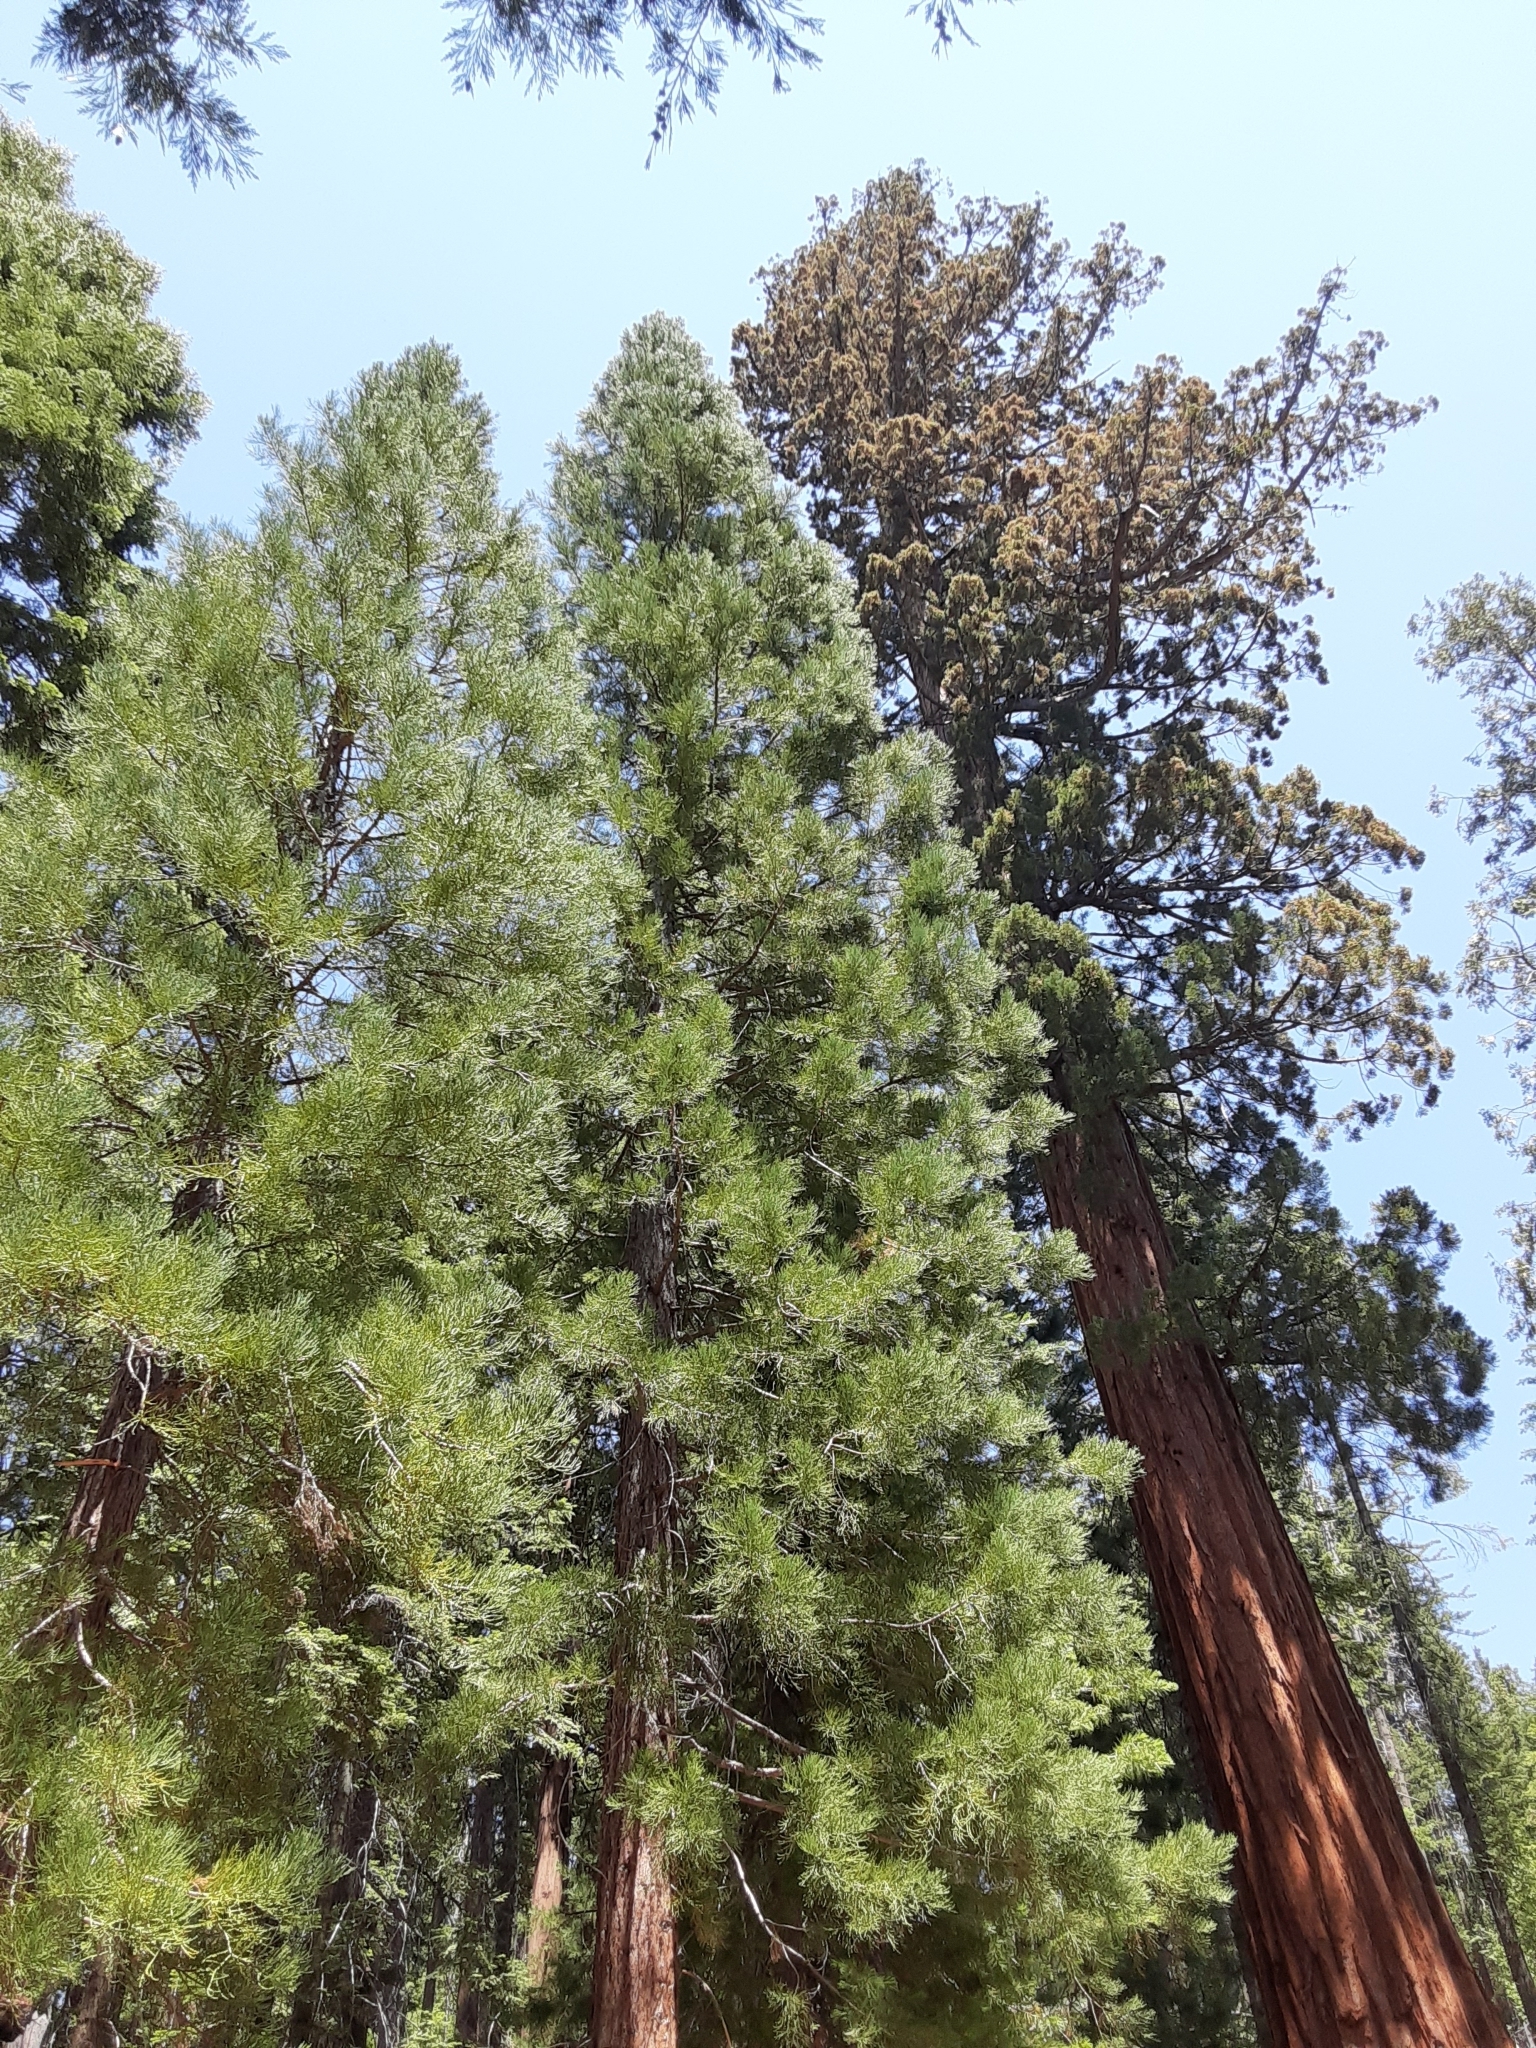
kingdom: Plantae
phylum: Tracheophyta
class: Pinopsida
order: Pinales
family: Cupressaceae
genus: Sequoiadendron
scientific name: Sequoiadendron giganteum
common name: Wellingtonia
